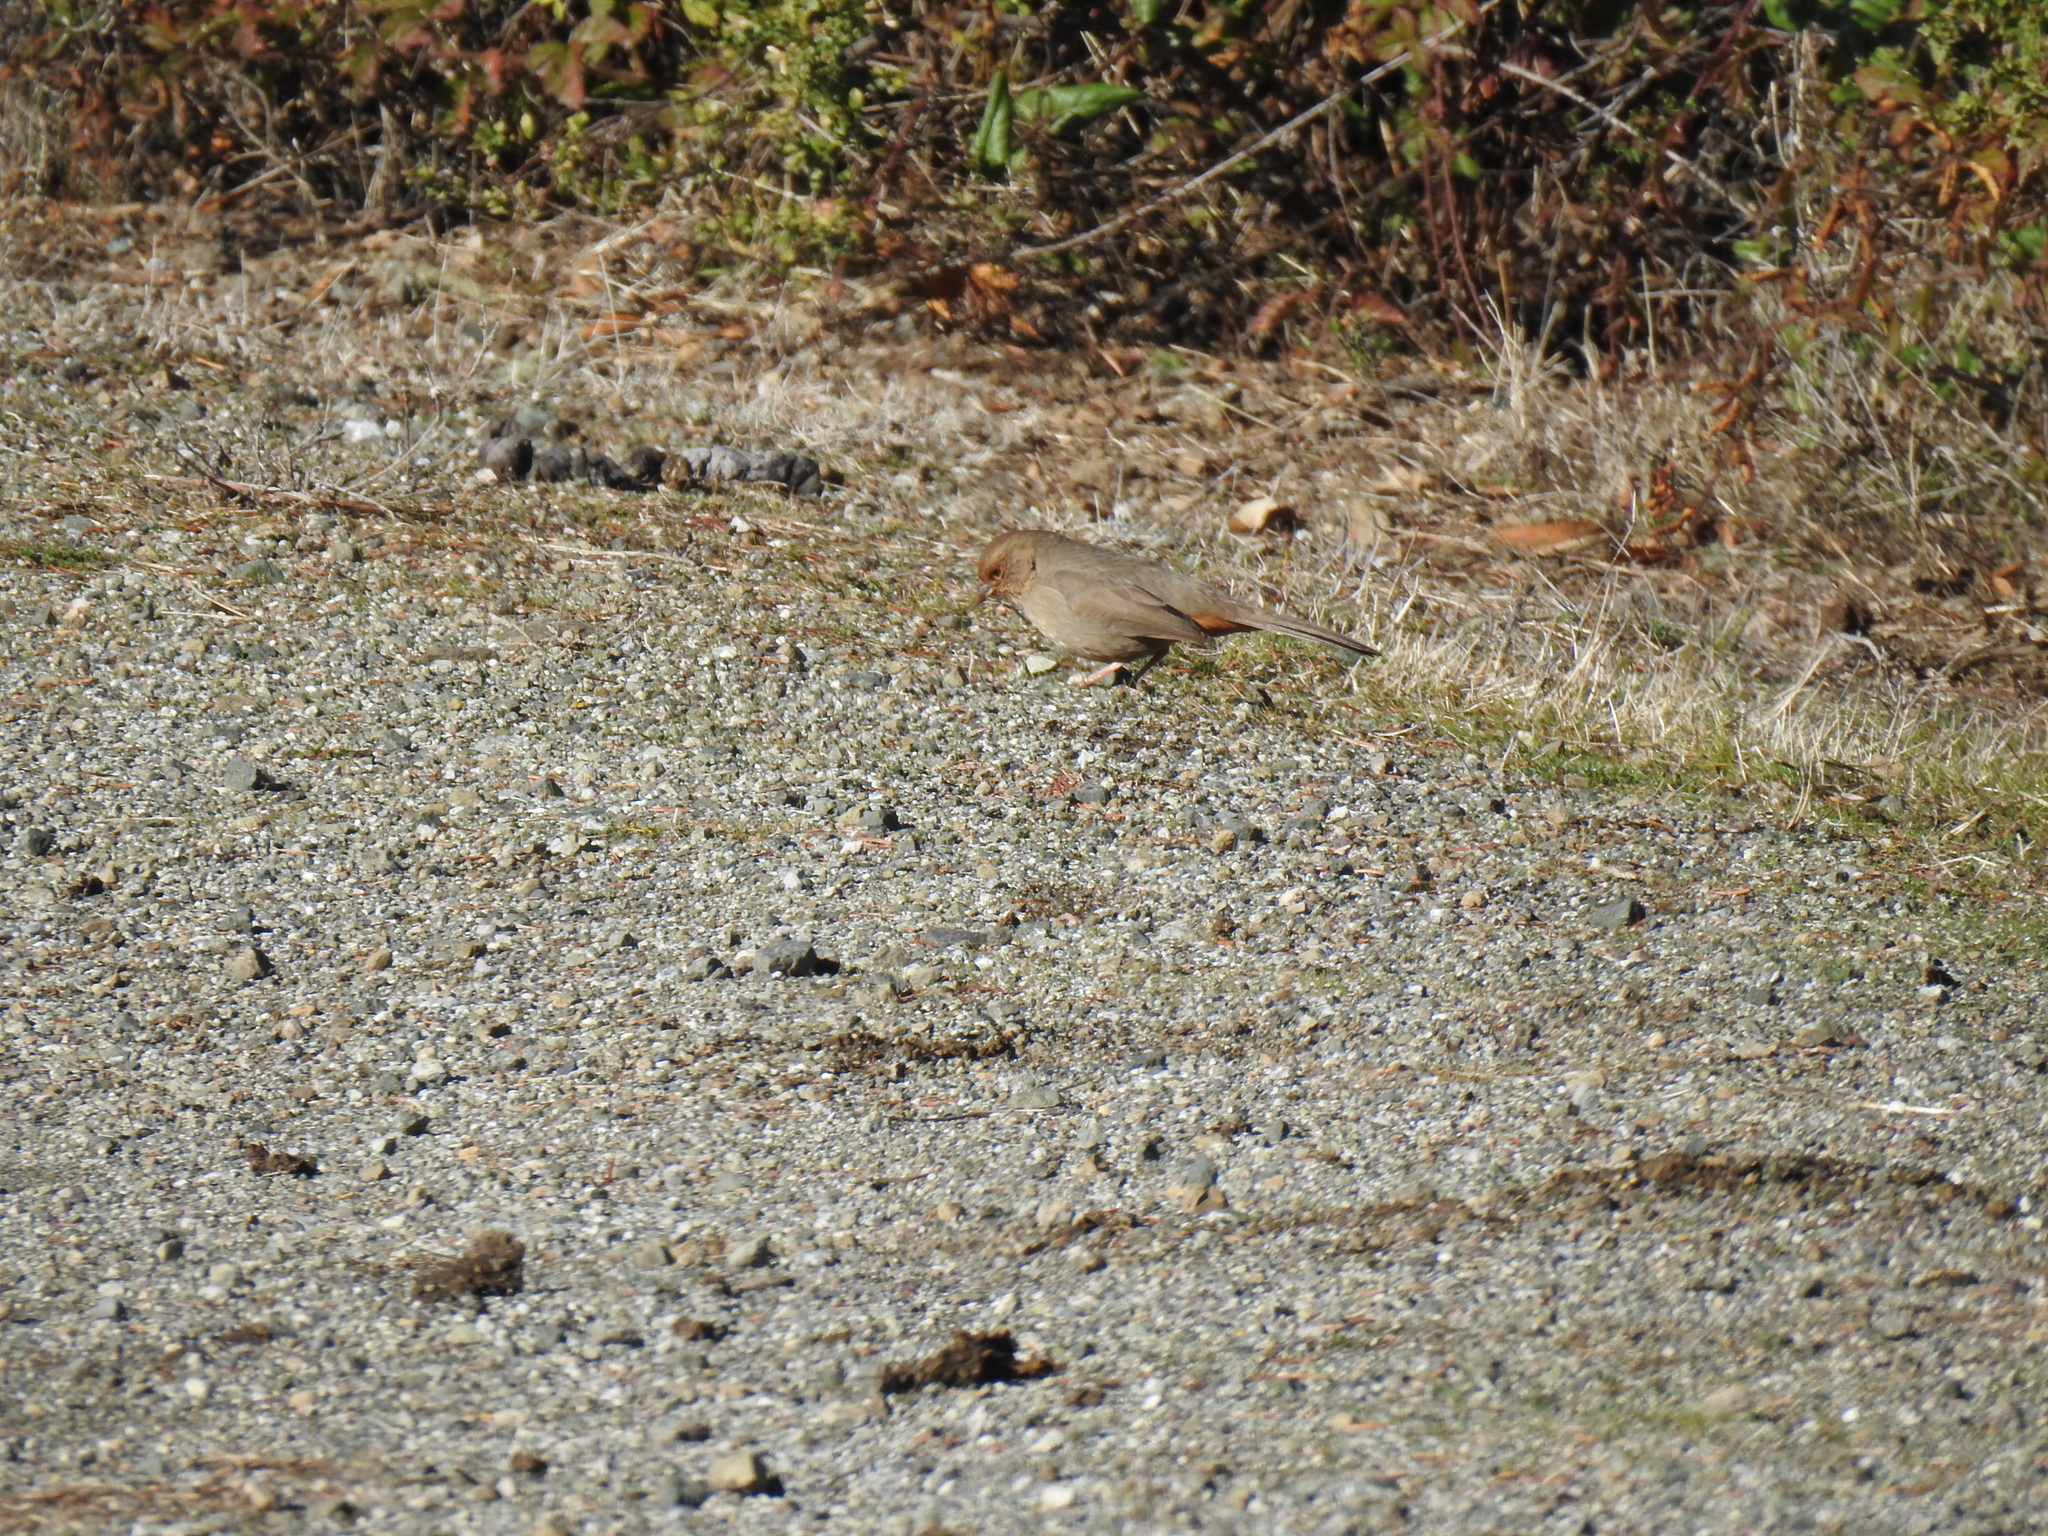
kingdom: Animalia
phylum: Chordata
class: Aves
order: Passeriformes
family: Passerellidae
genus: Melozone
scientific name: Melozone crissalis
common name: California towhee
